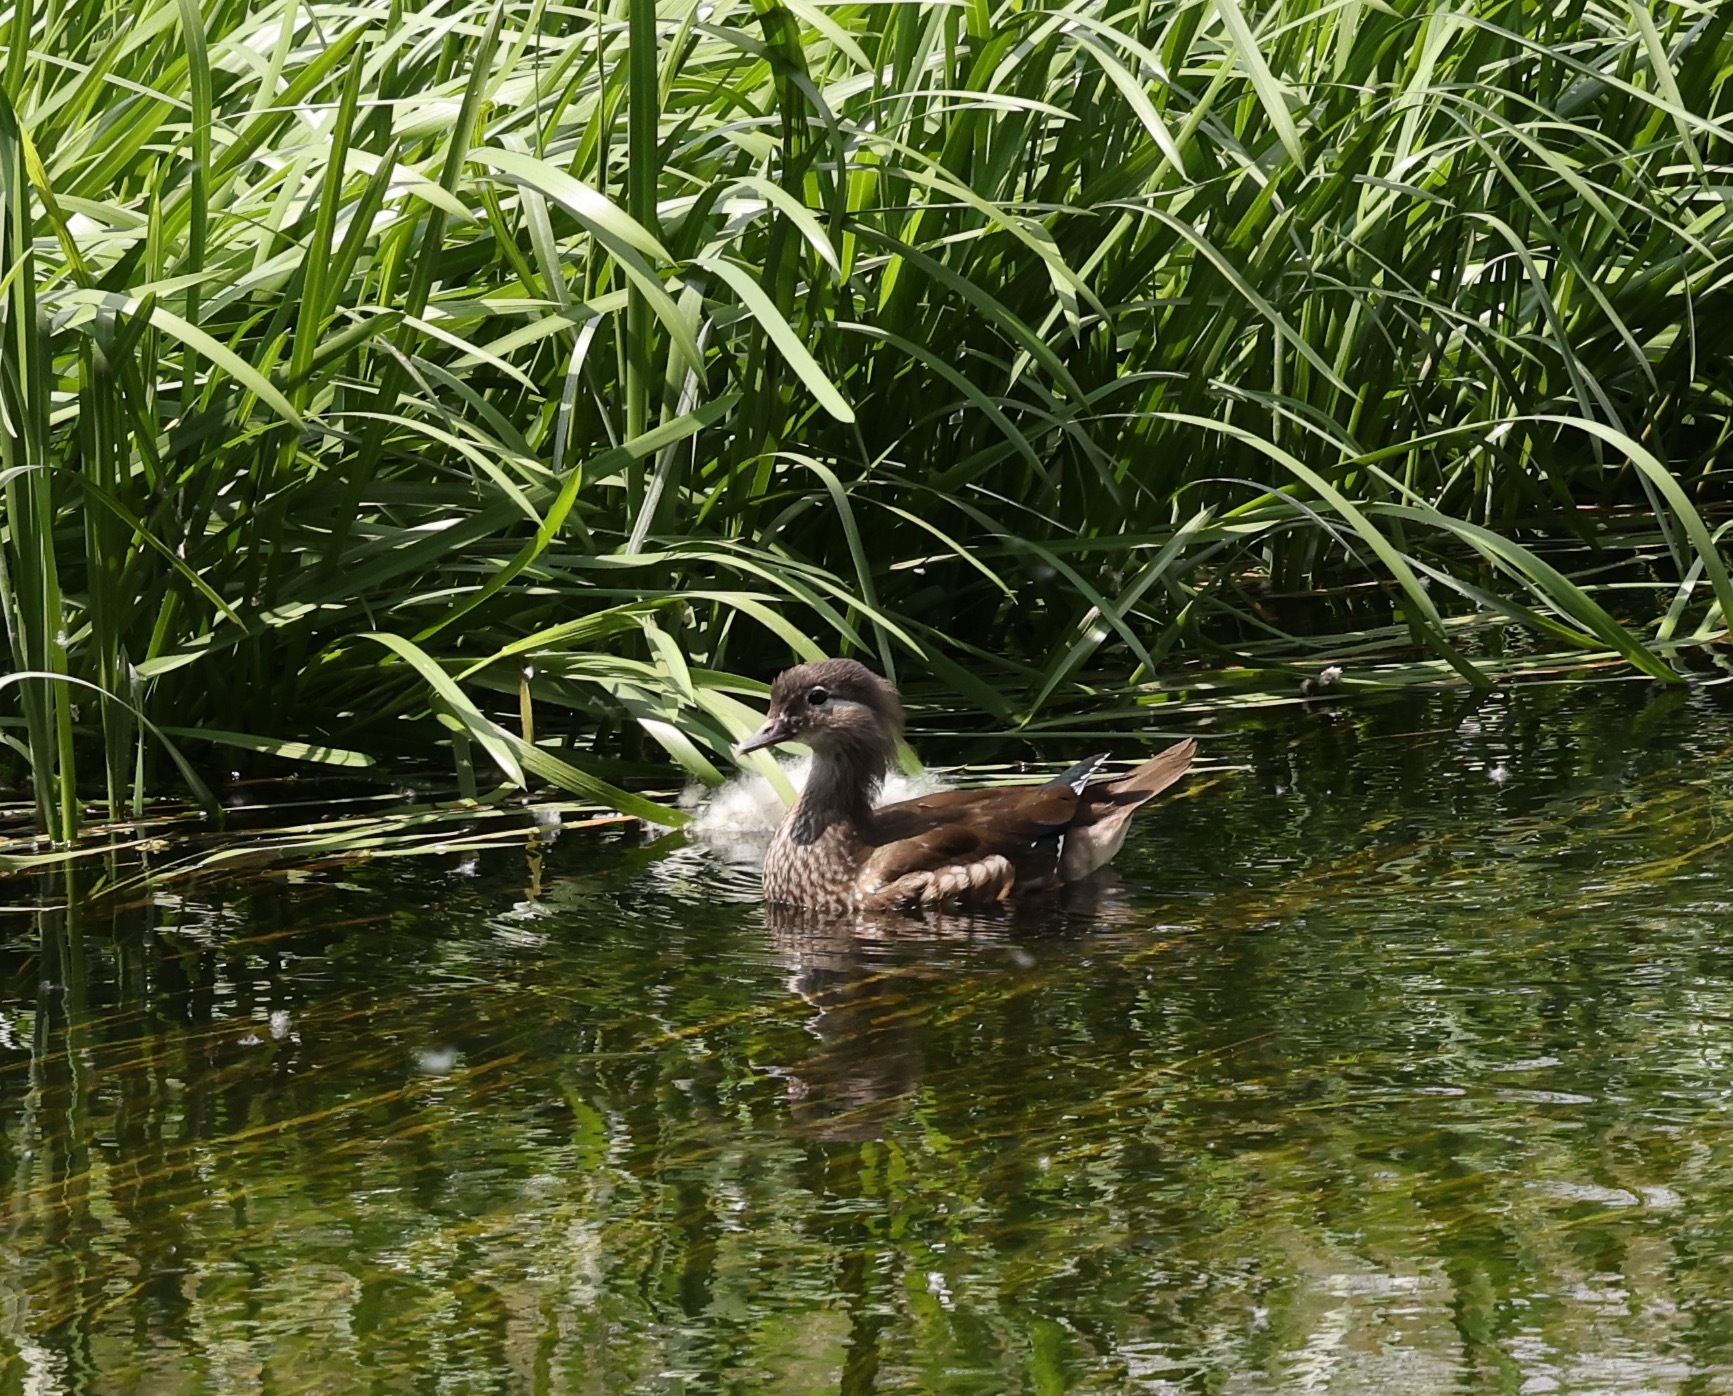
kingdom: Animalia
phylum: Chordata
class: Aves
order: Anseriformes
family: Anatidae
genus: Aix
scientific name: Aix galericulata
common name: Mandarin duck
